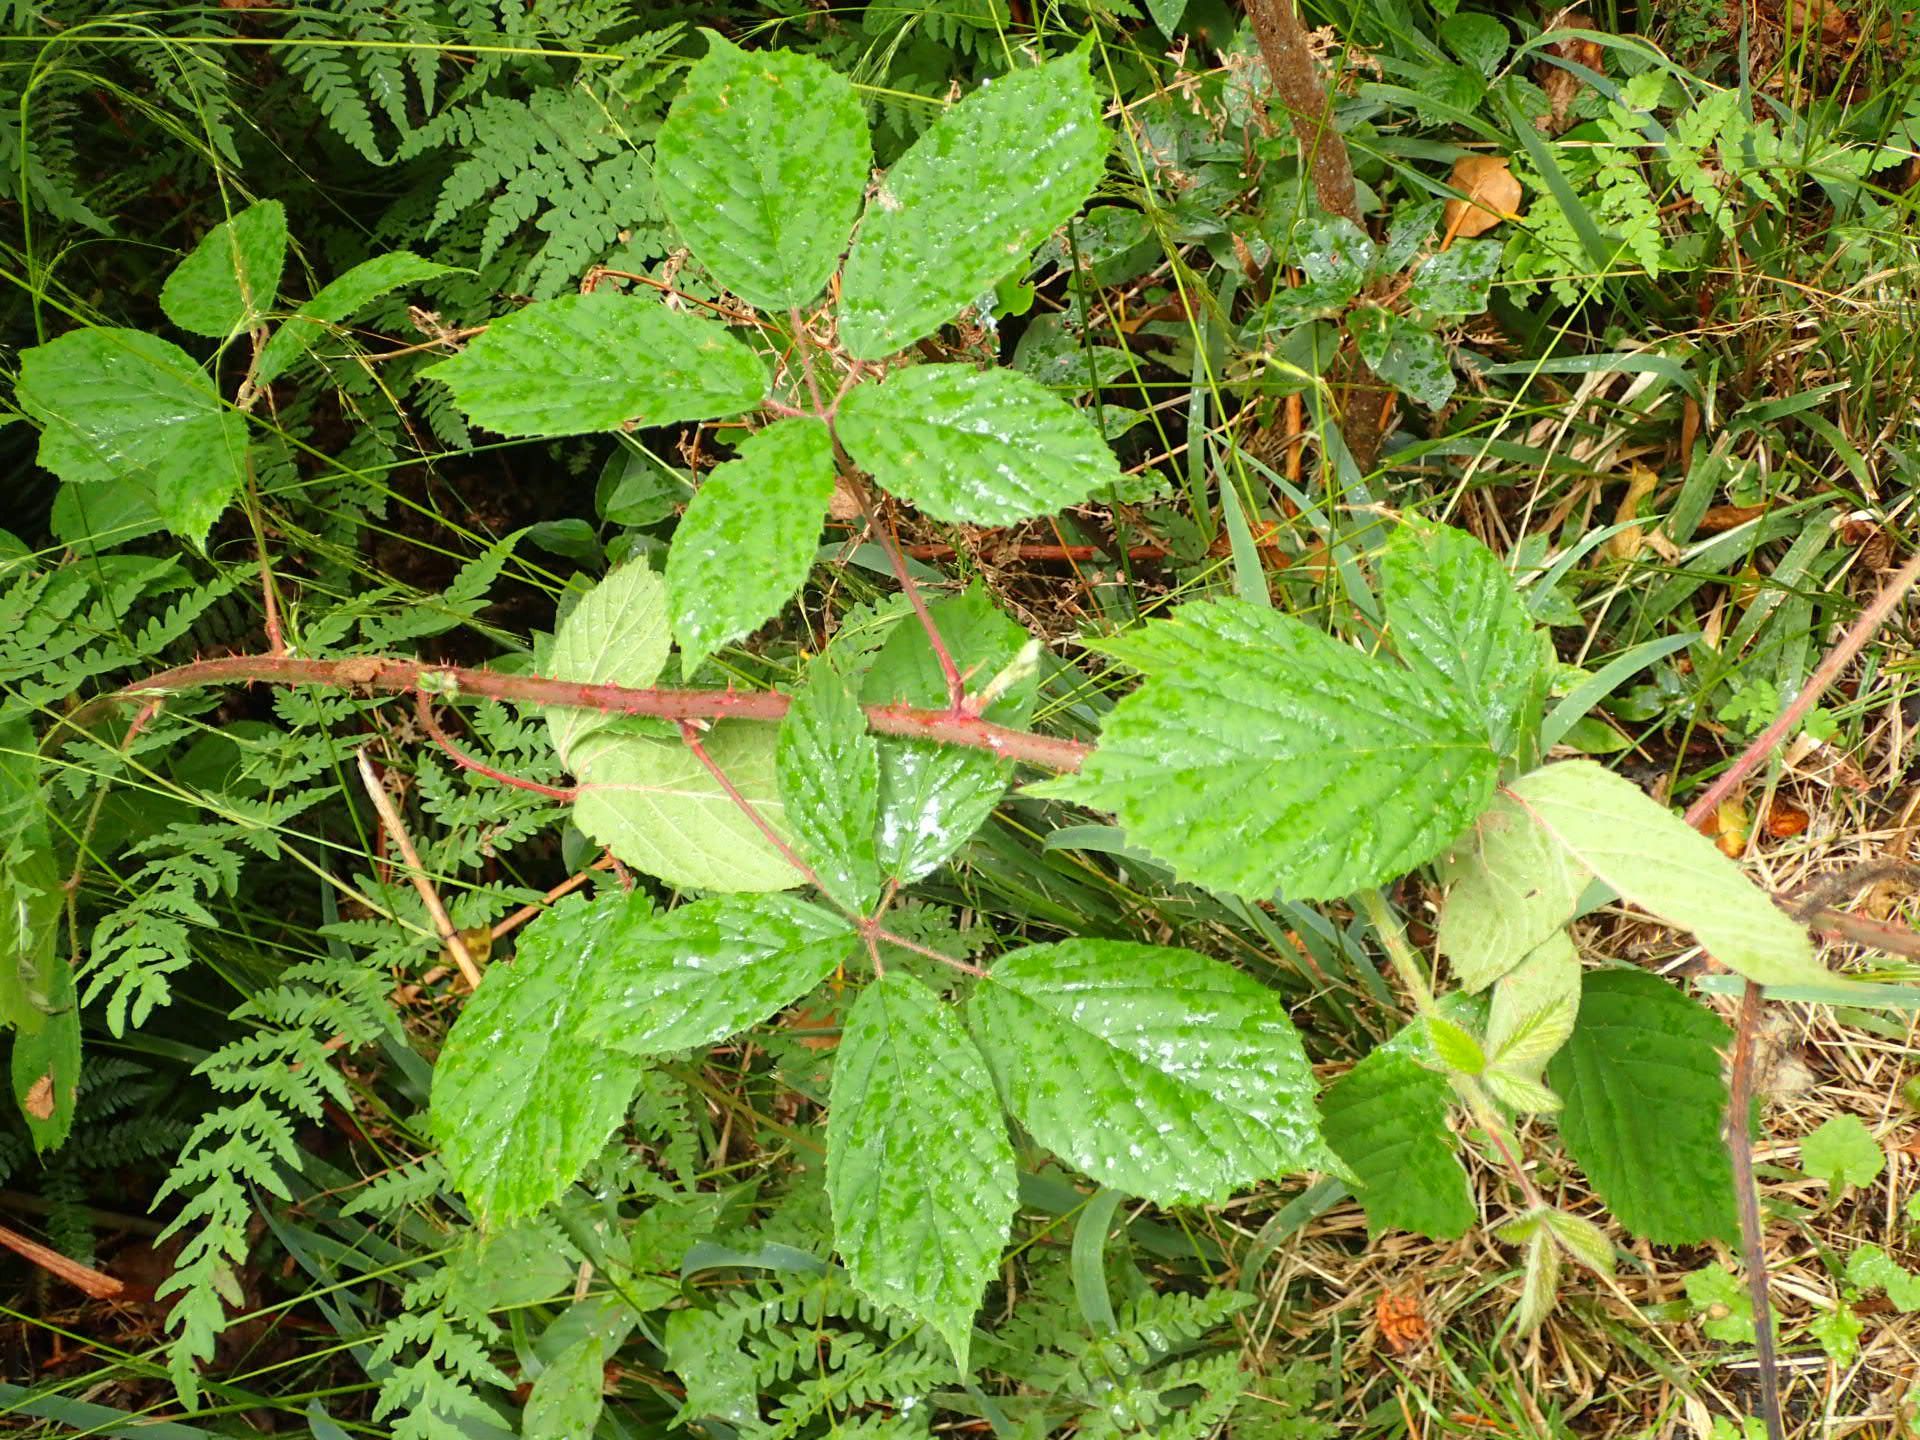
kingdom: Plantae
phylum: Tracheophyta
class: Magnoliopsida
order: Rosales
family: Rosaceae
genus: Rubus
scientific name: Rubus
